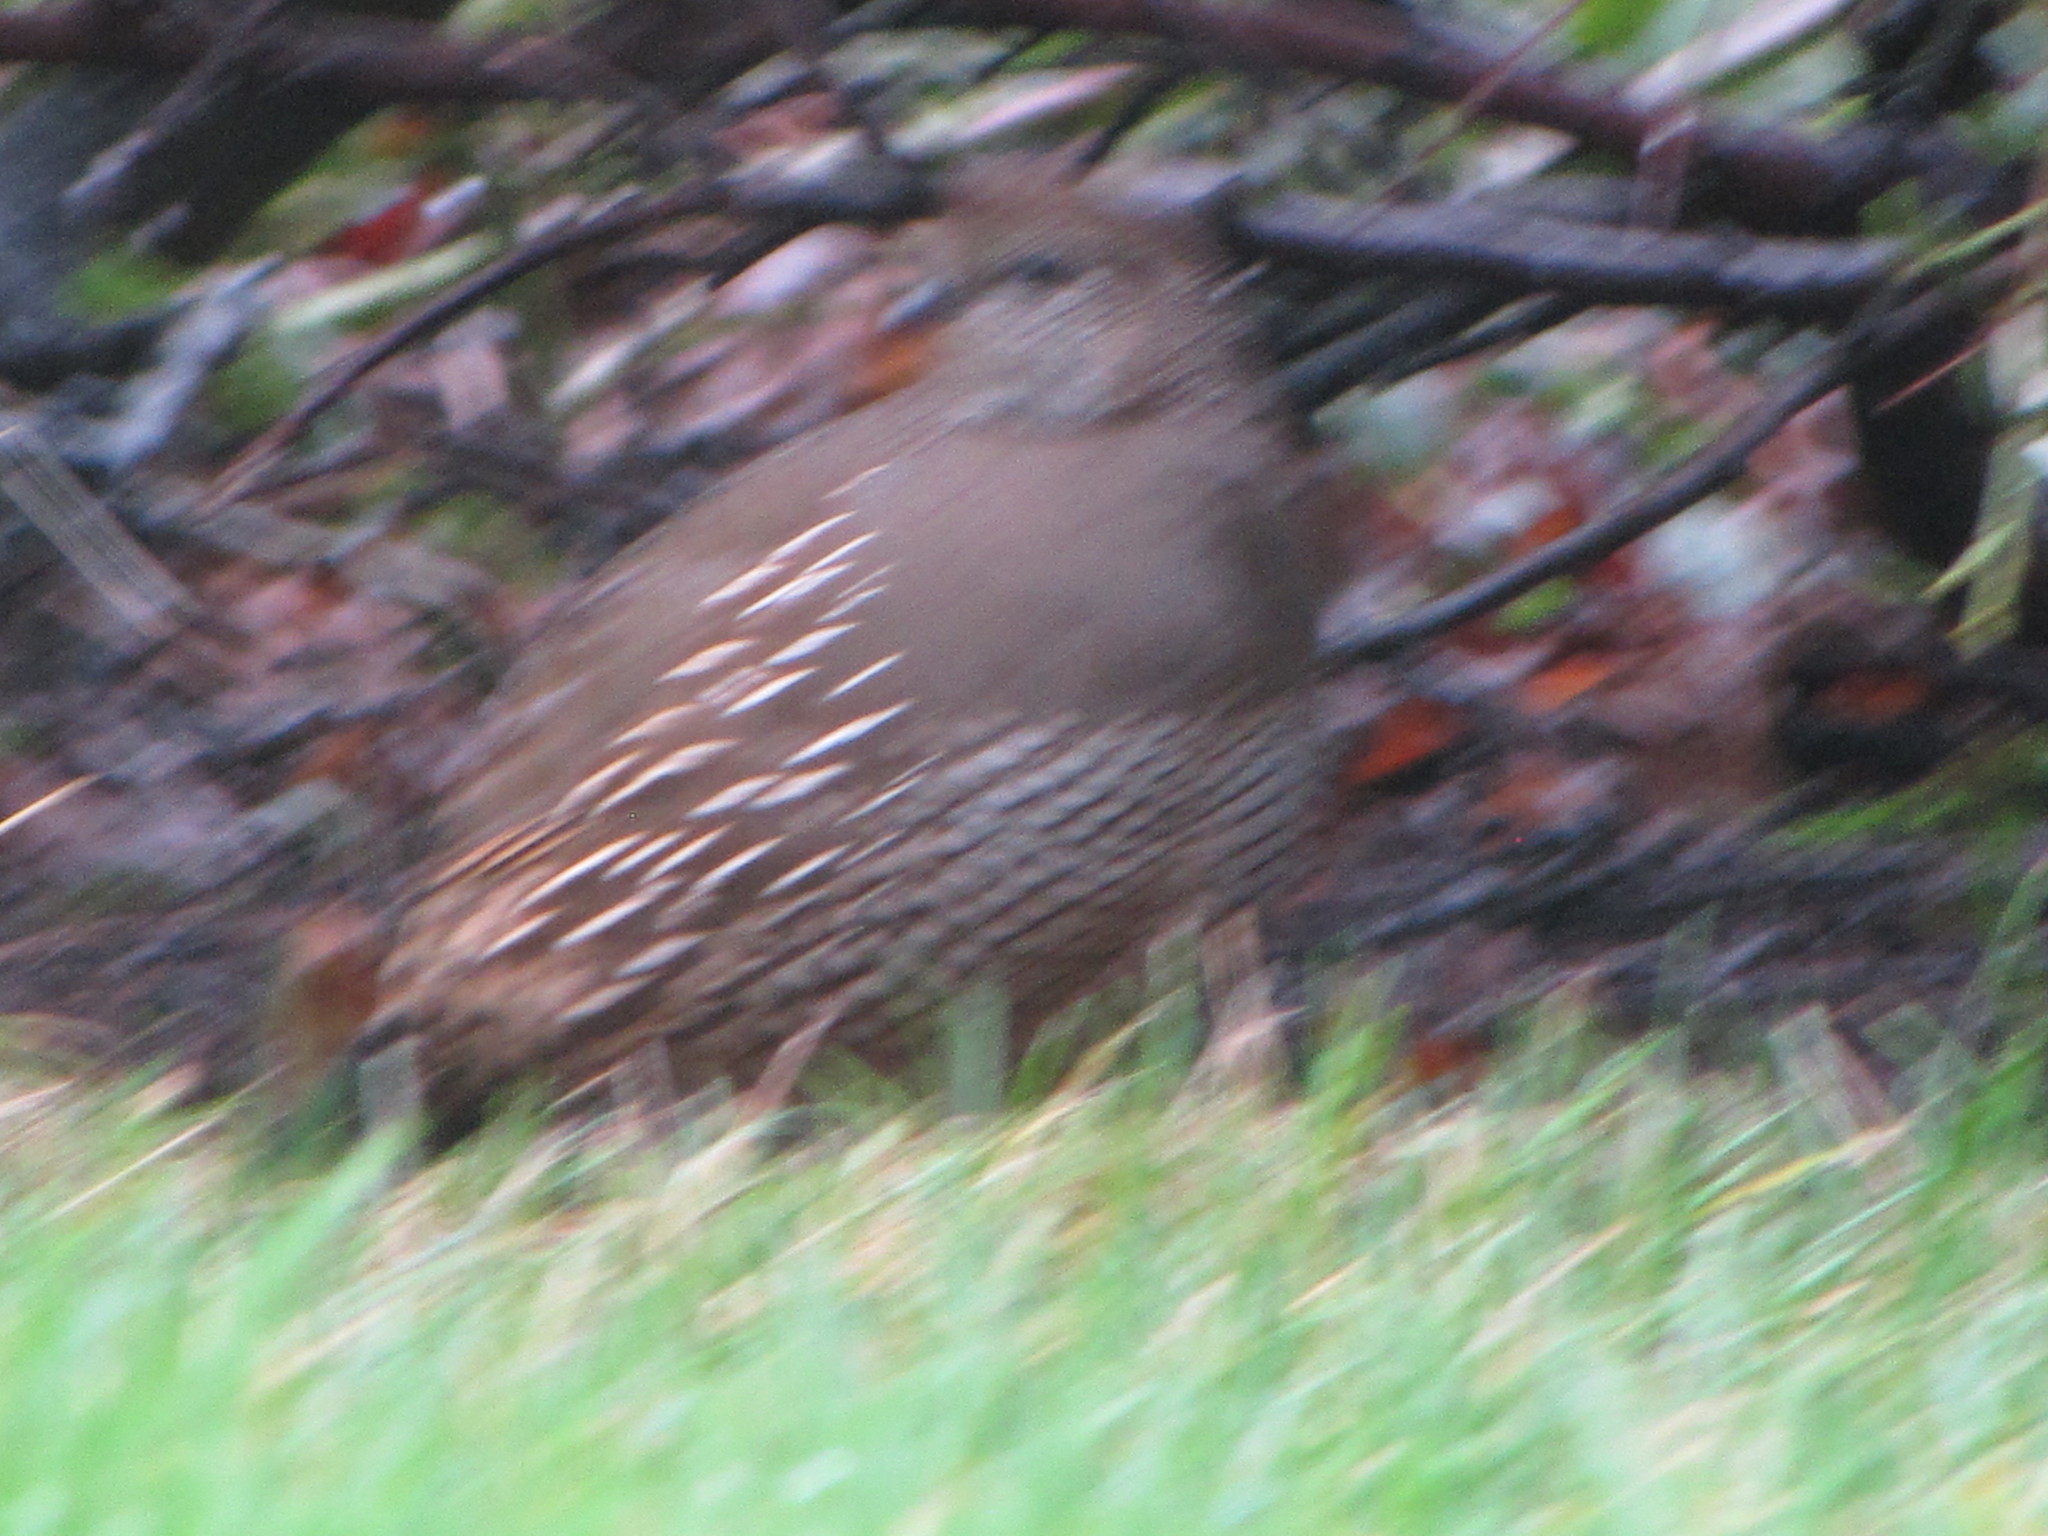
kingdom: Animalia
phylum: Chordata
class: Aves
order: Galliformes
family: Odontophoridae
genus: Callipepla
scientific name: Callipepla californica
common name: California quail
